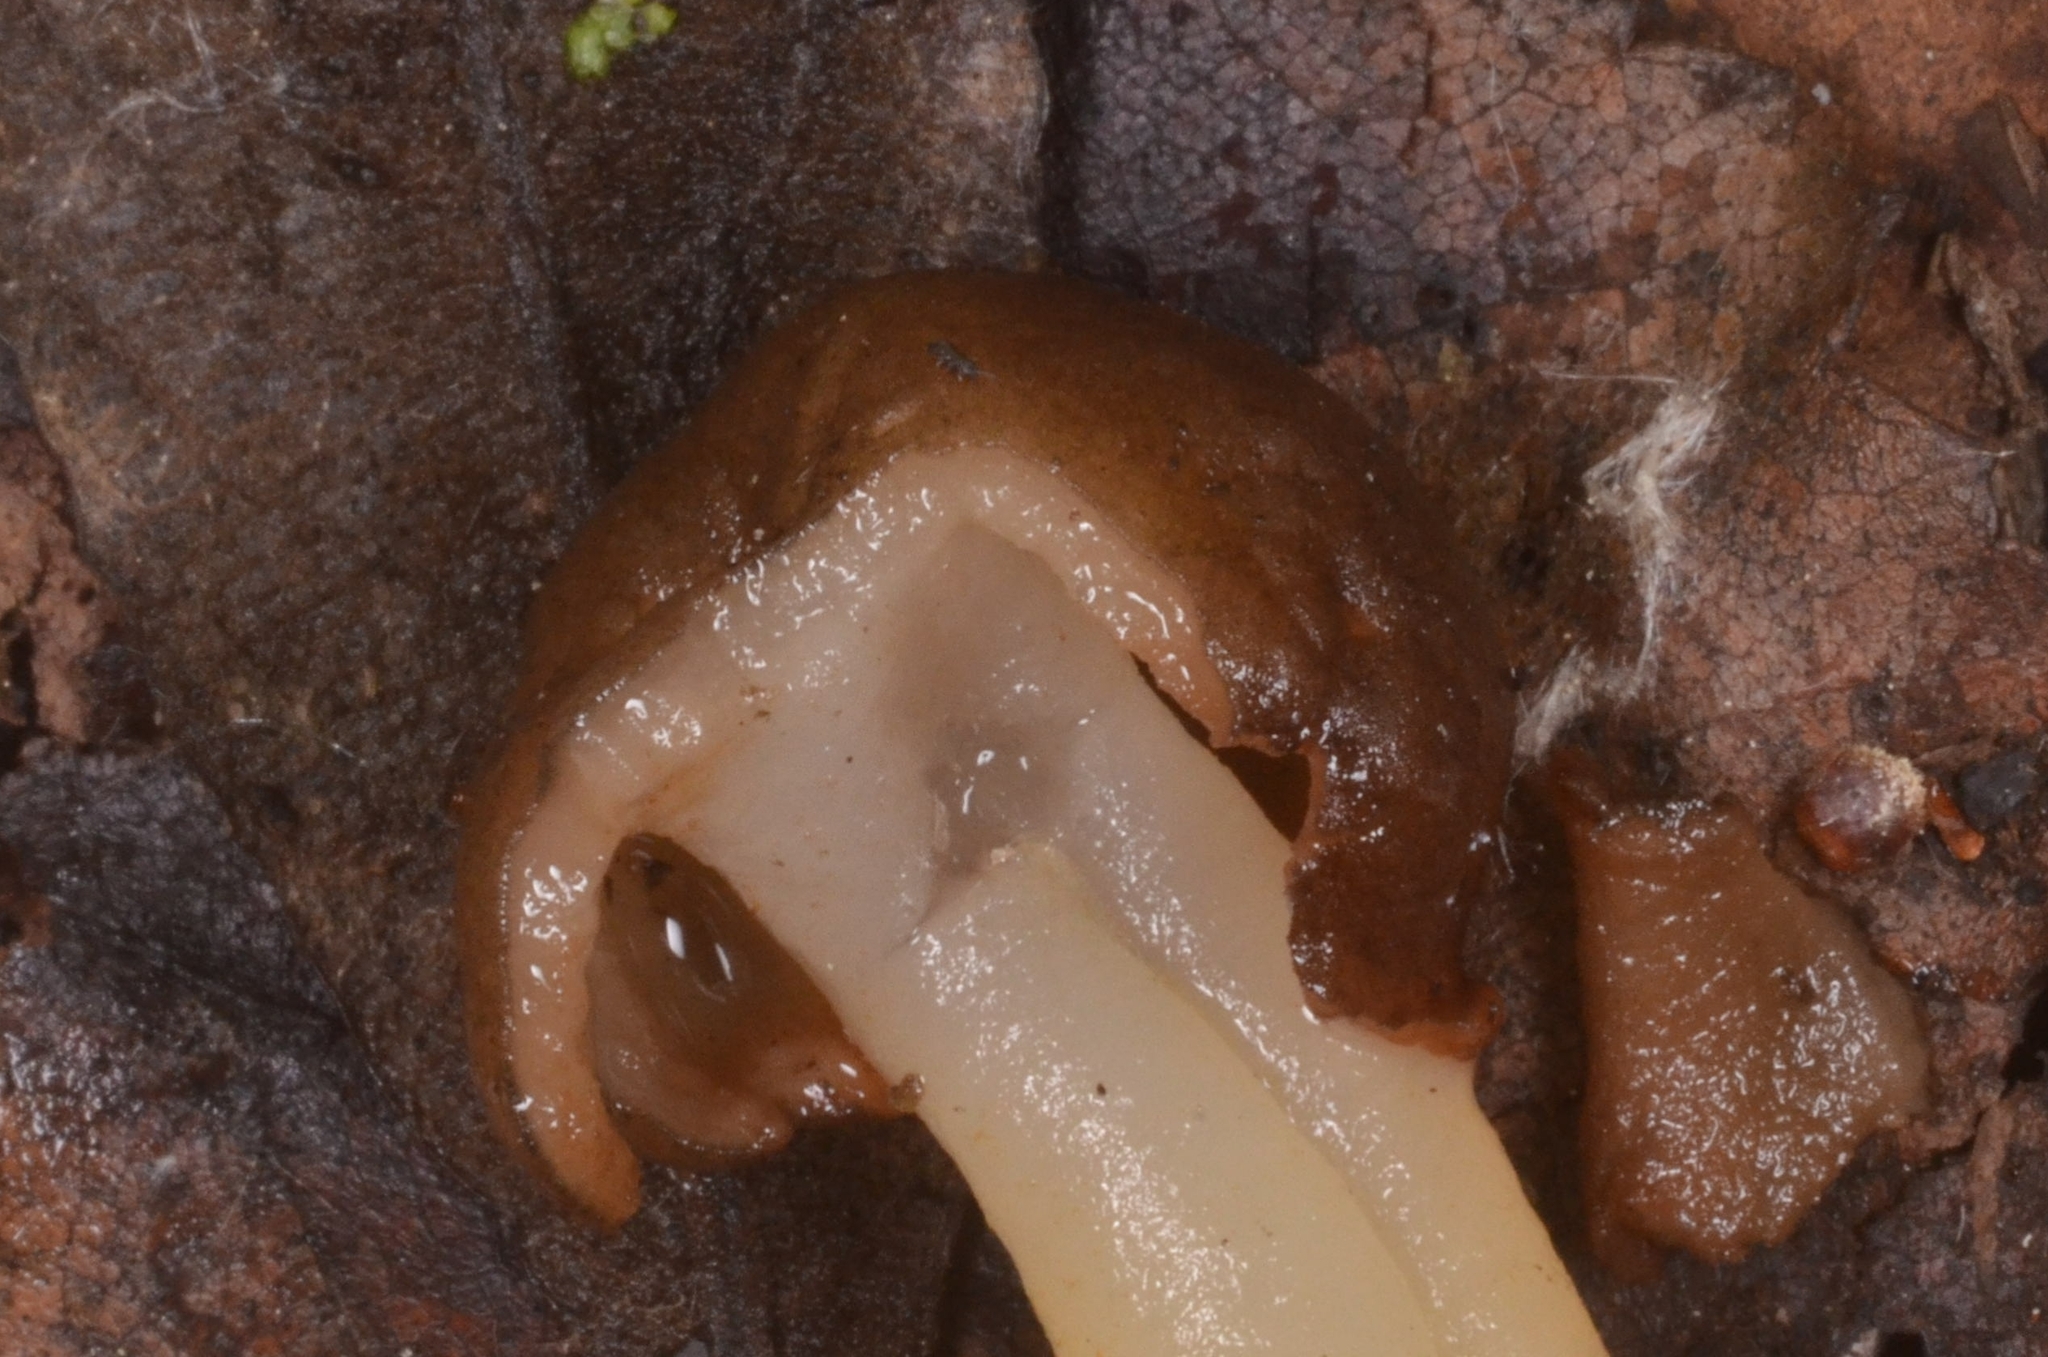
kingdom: Fungi
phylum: Ascomycota
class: Pezizomycetes
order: Pezizales
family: Morchellaceae
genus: Verpa
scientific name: Verpa conica
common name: Thimble morel
